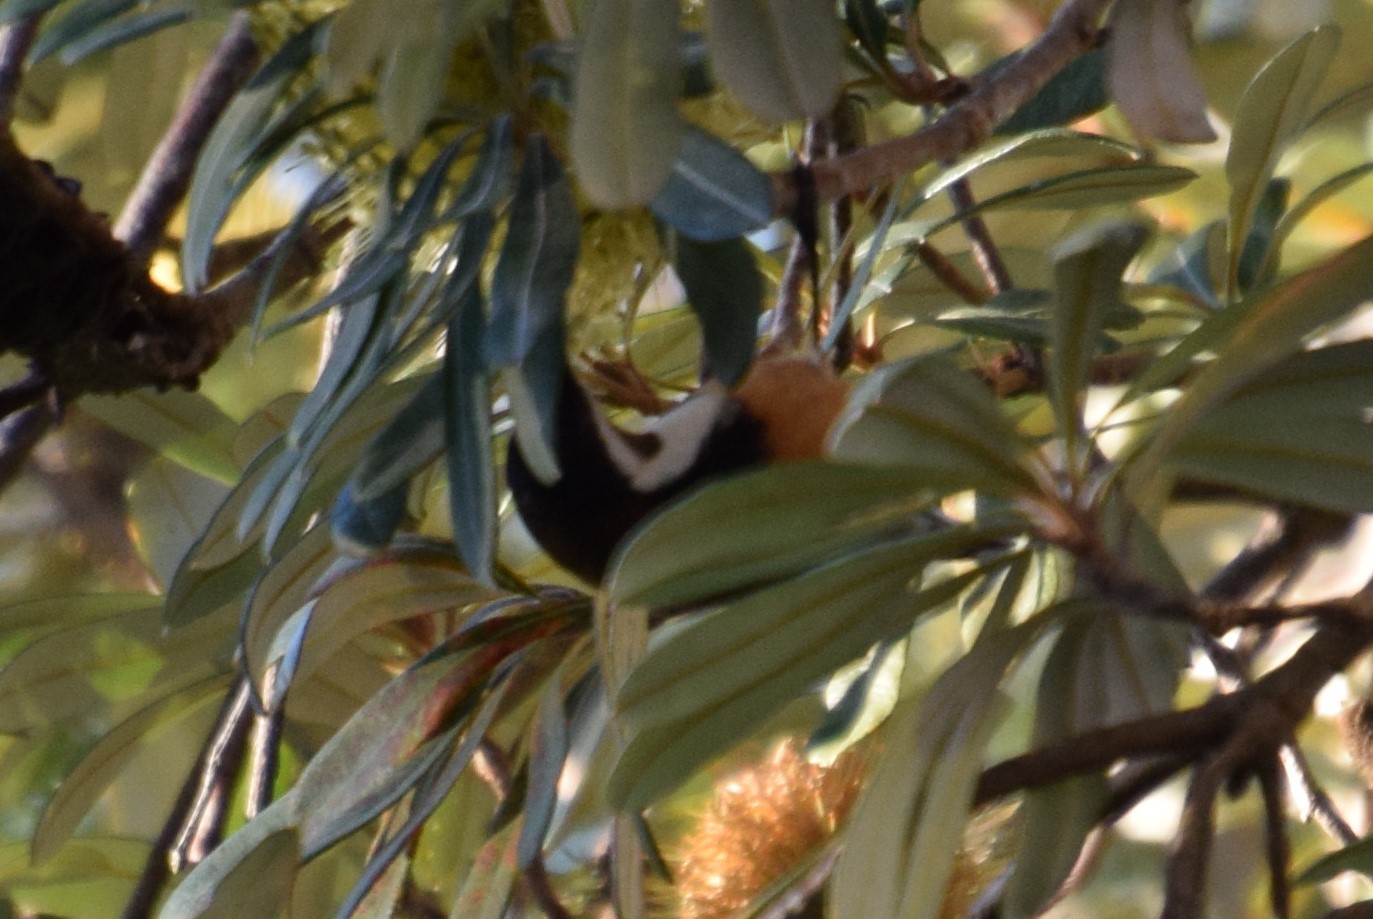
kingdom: Animalia
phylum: Chordata
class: Aves
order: Passeriformes
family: Meliphagidae
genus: Acanthorhynchus
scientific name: Acanthorhynchus tenuirostris
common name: Eastern spinebill
